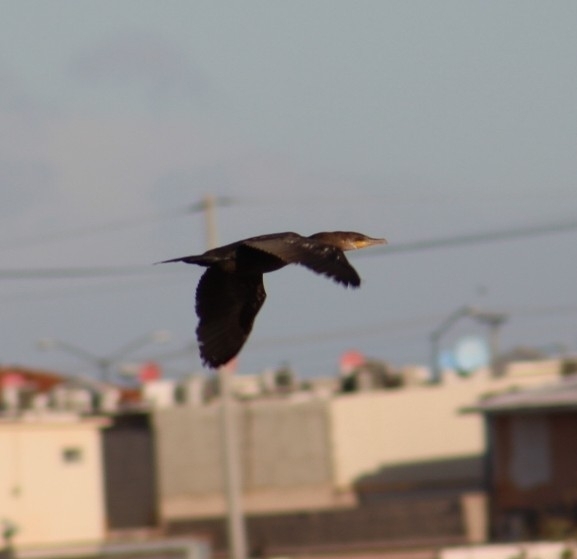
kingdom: Animalia
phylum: Chordata
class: Aves
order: Suliformes
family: Phalacrocoracidae
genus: Phalacrocorax
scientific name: Phalacrocorax auritus
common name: Double-crested cormorant
